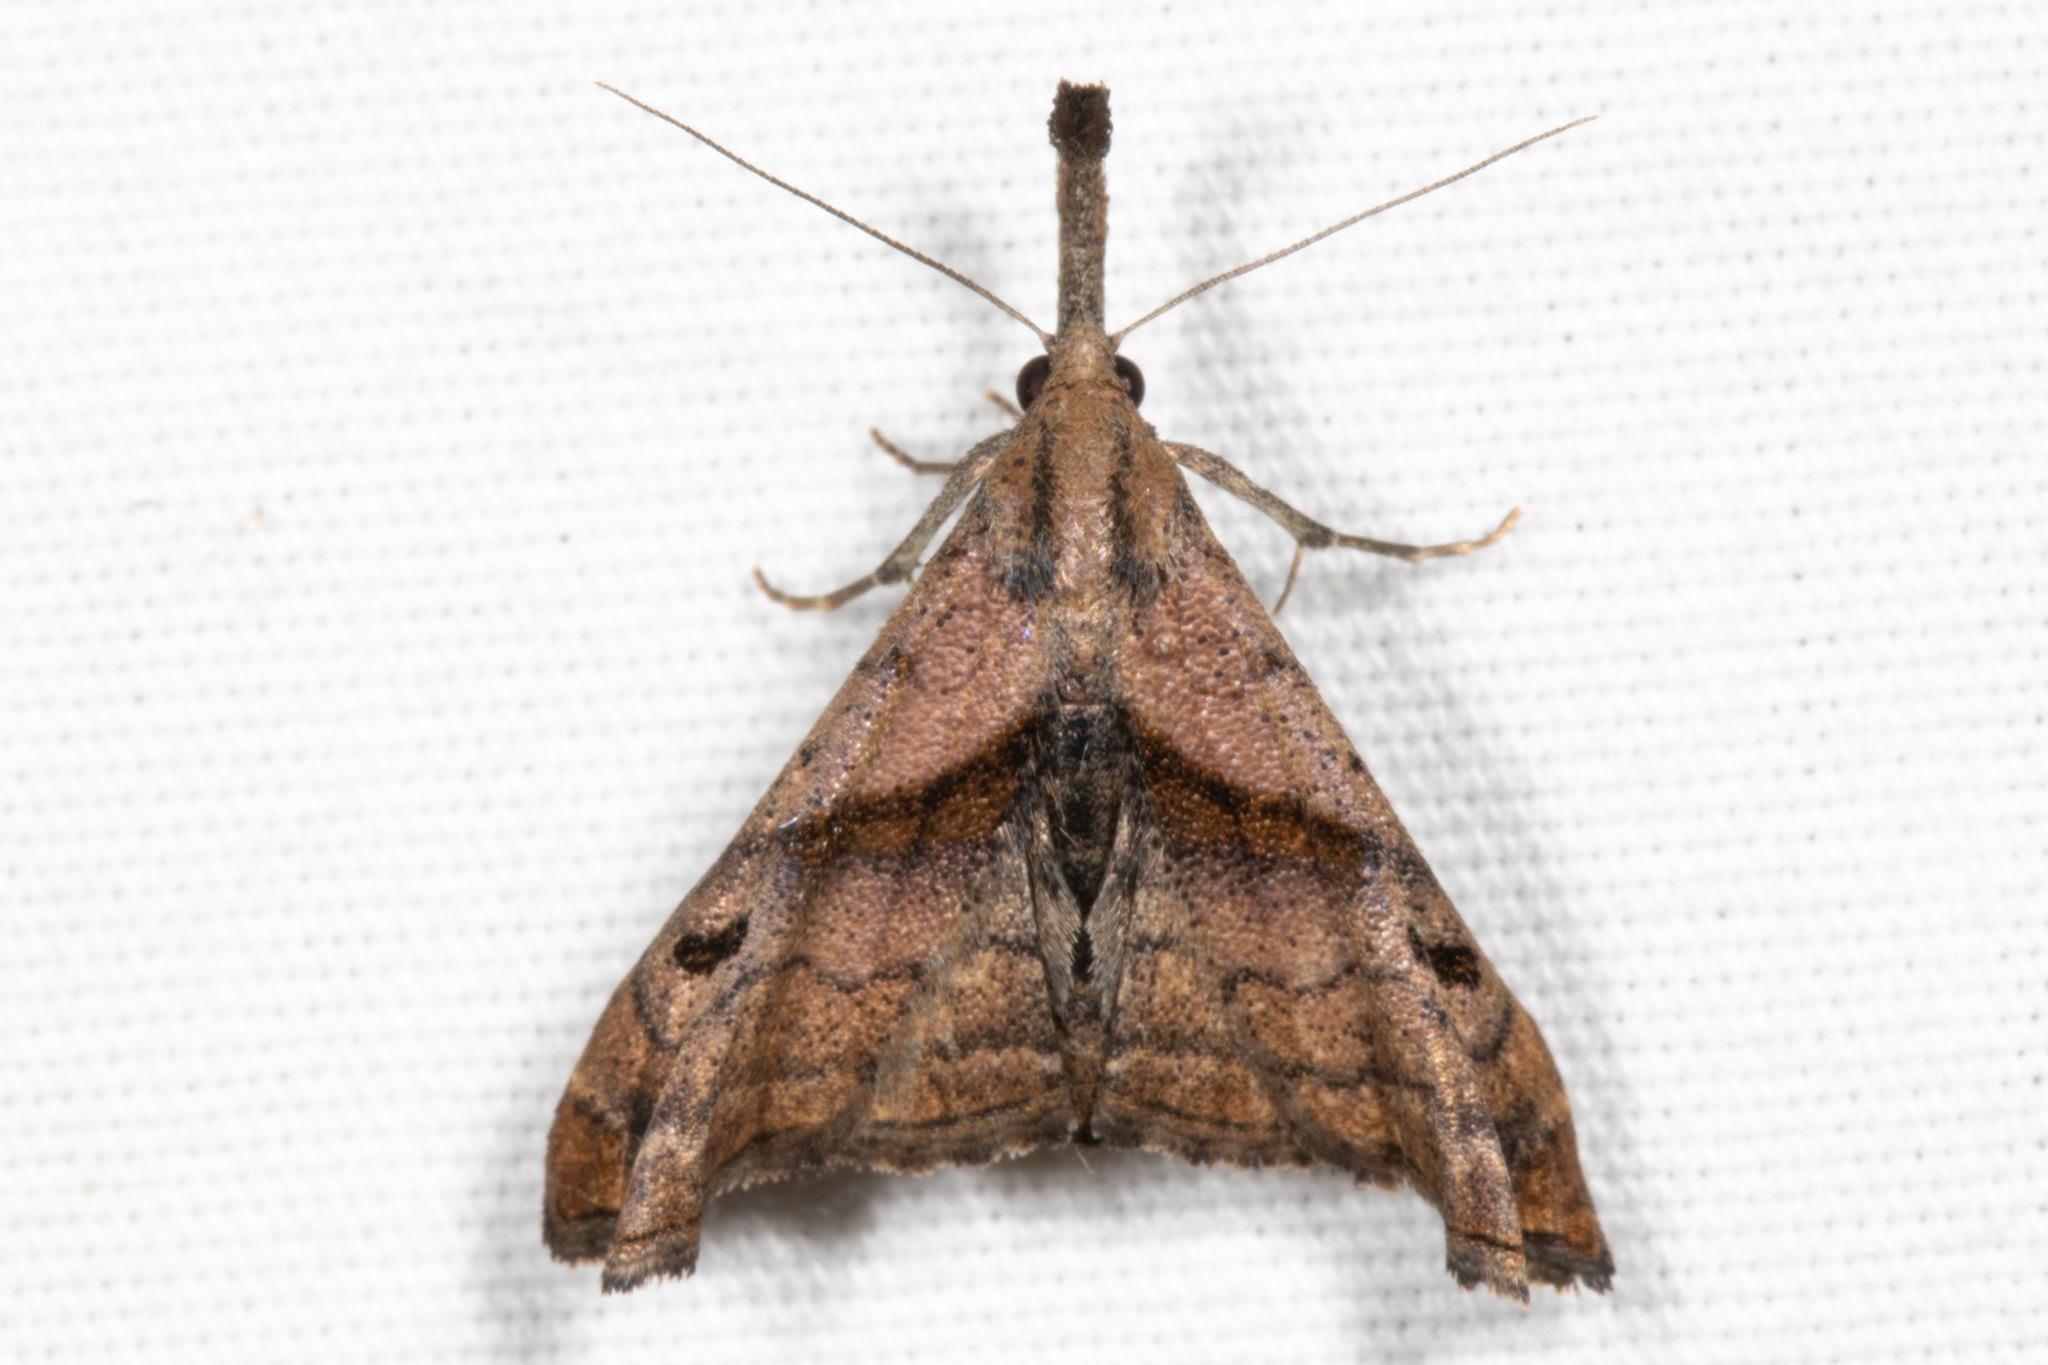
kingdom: Animalia
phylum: Arthropoda
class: Insecta
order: Lepidoptera
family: Erebidae
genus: Palthis
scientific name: Palthis angulalis
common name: Dark-spotted palthis moth
